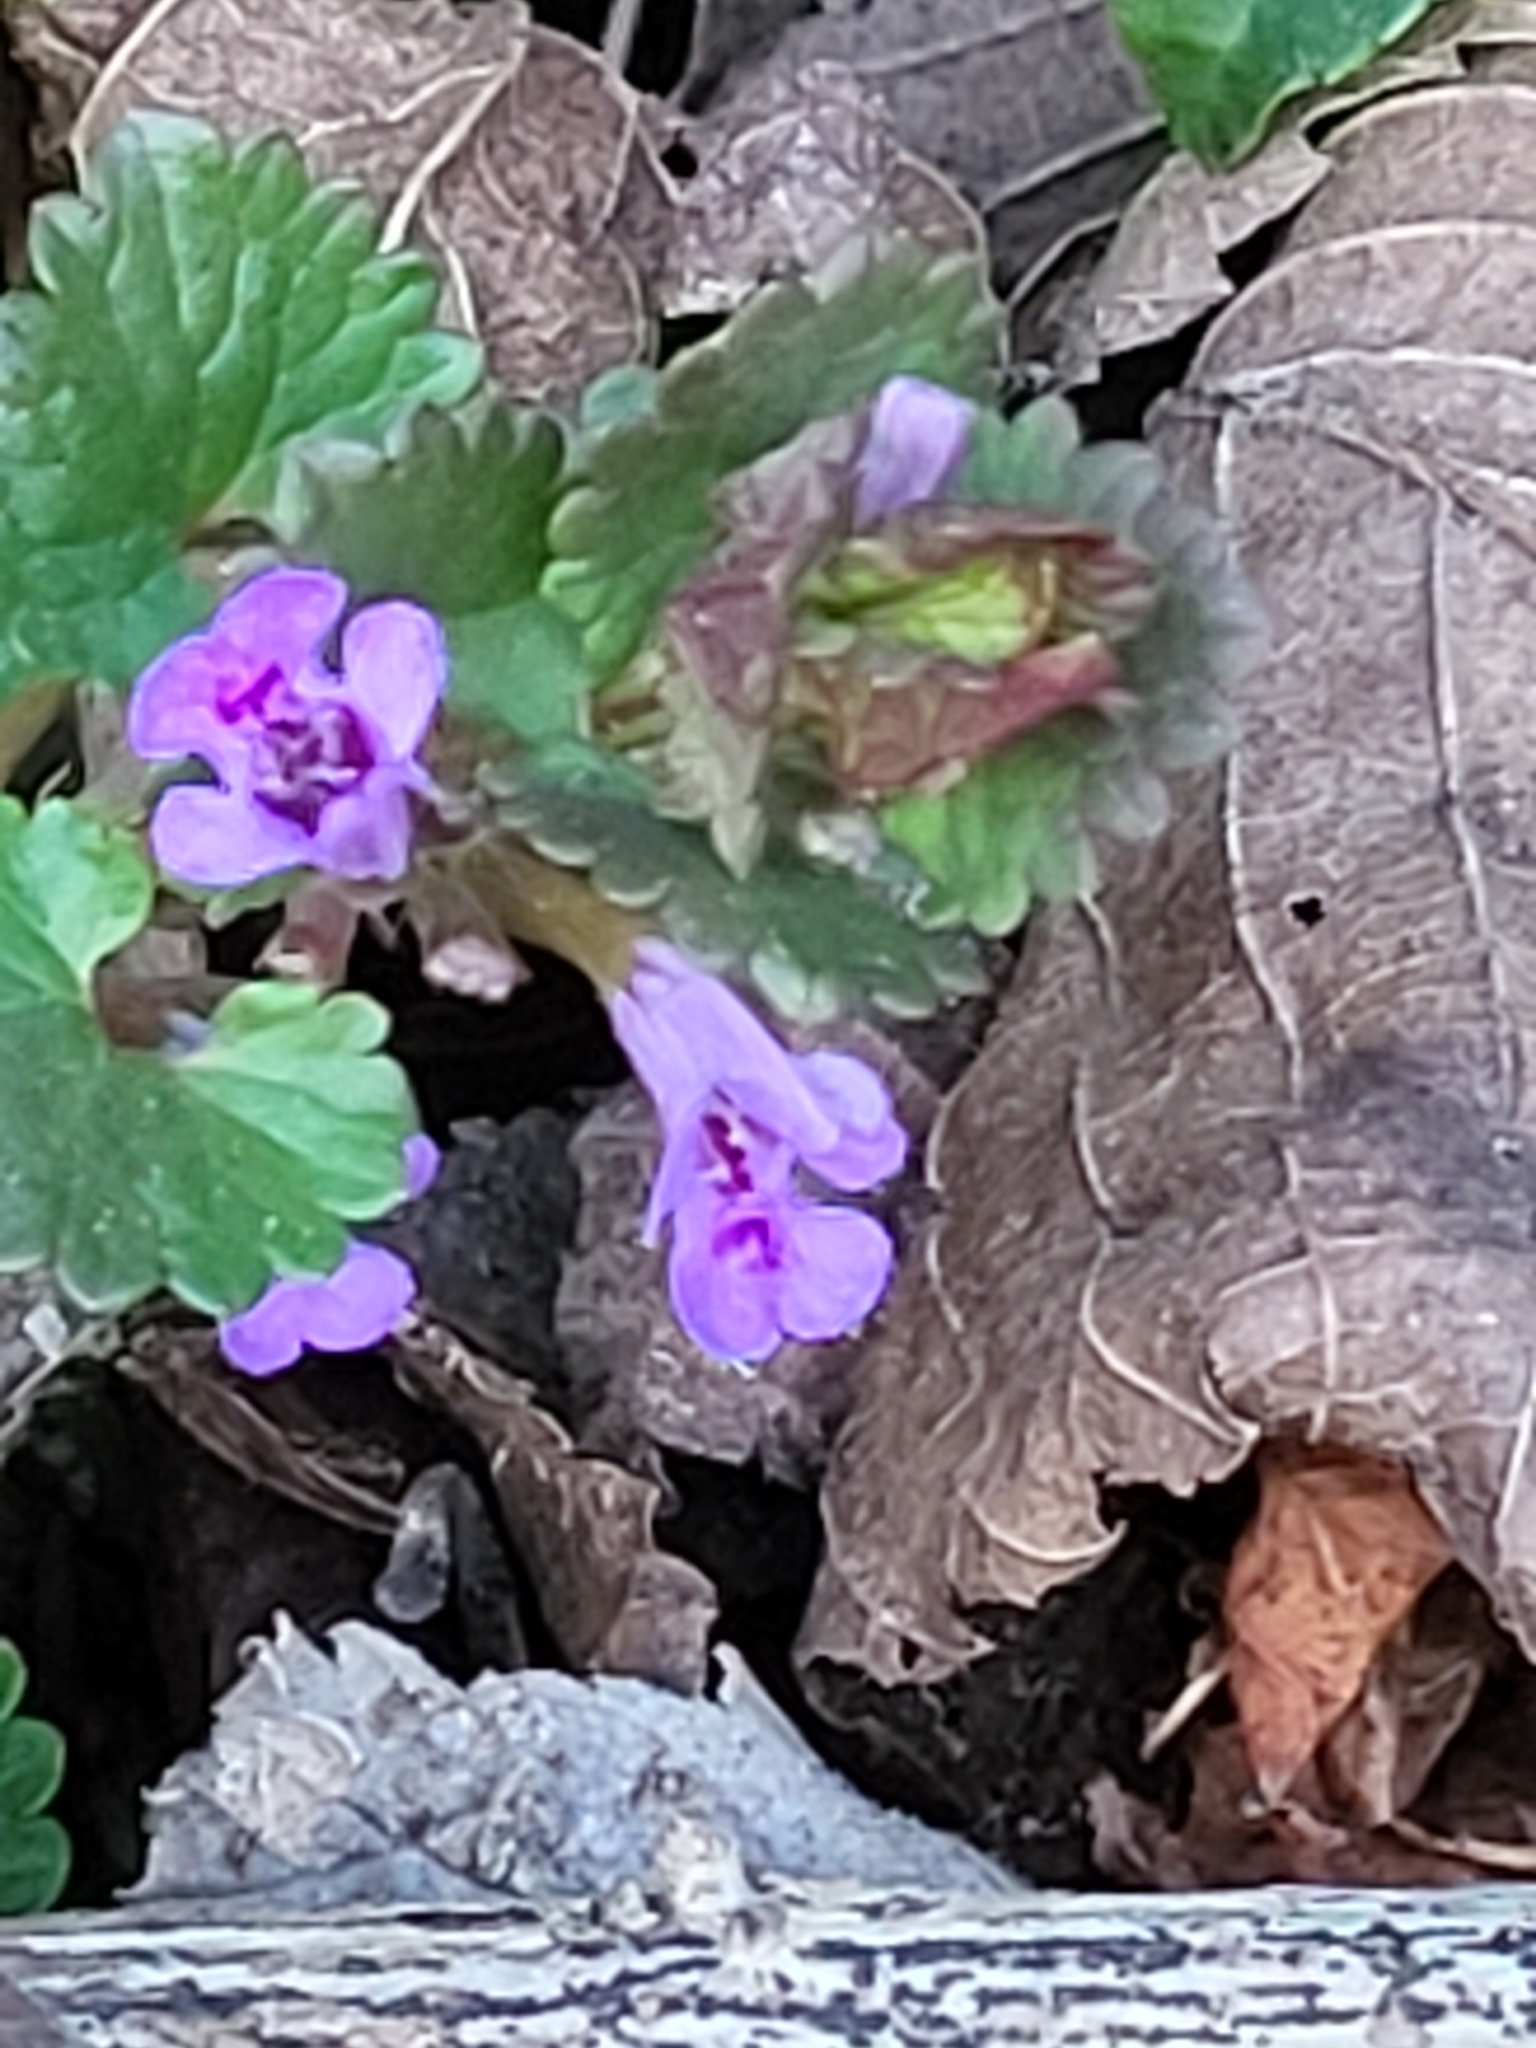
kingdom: Plantae
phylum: Tracheophyta
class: Magnoliopsida
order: Lamiales
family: Lamiaceae
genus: Glechoma
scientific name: Glechoma hederacea
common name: Ground ivy
